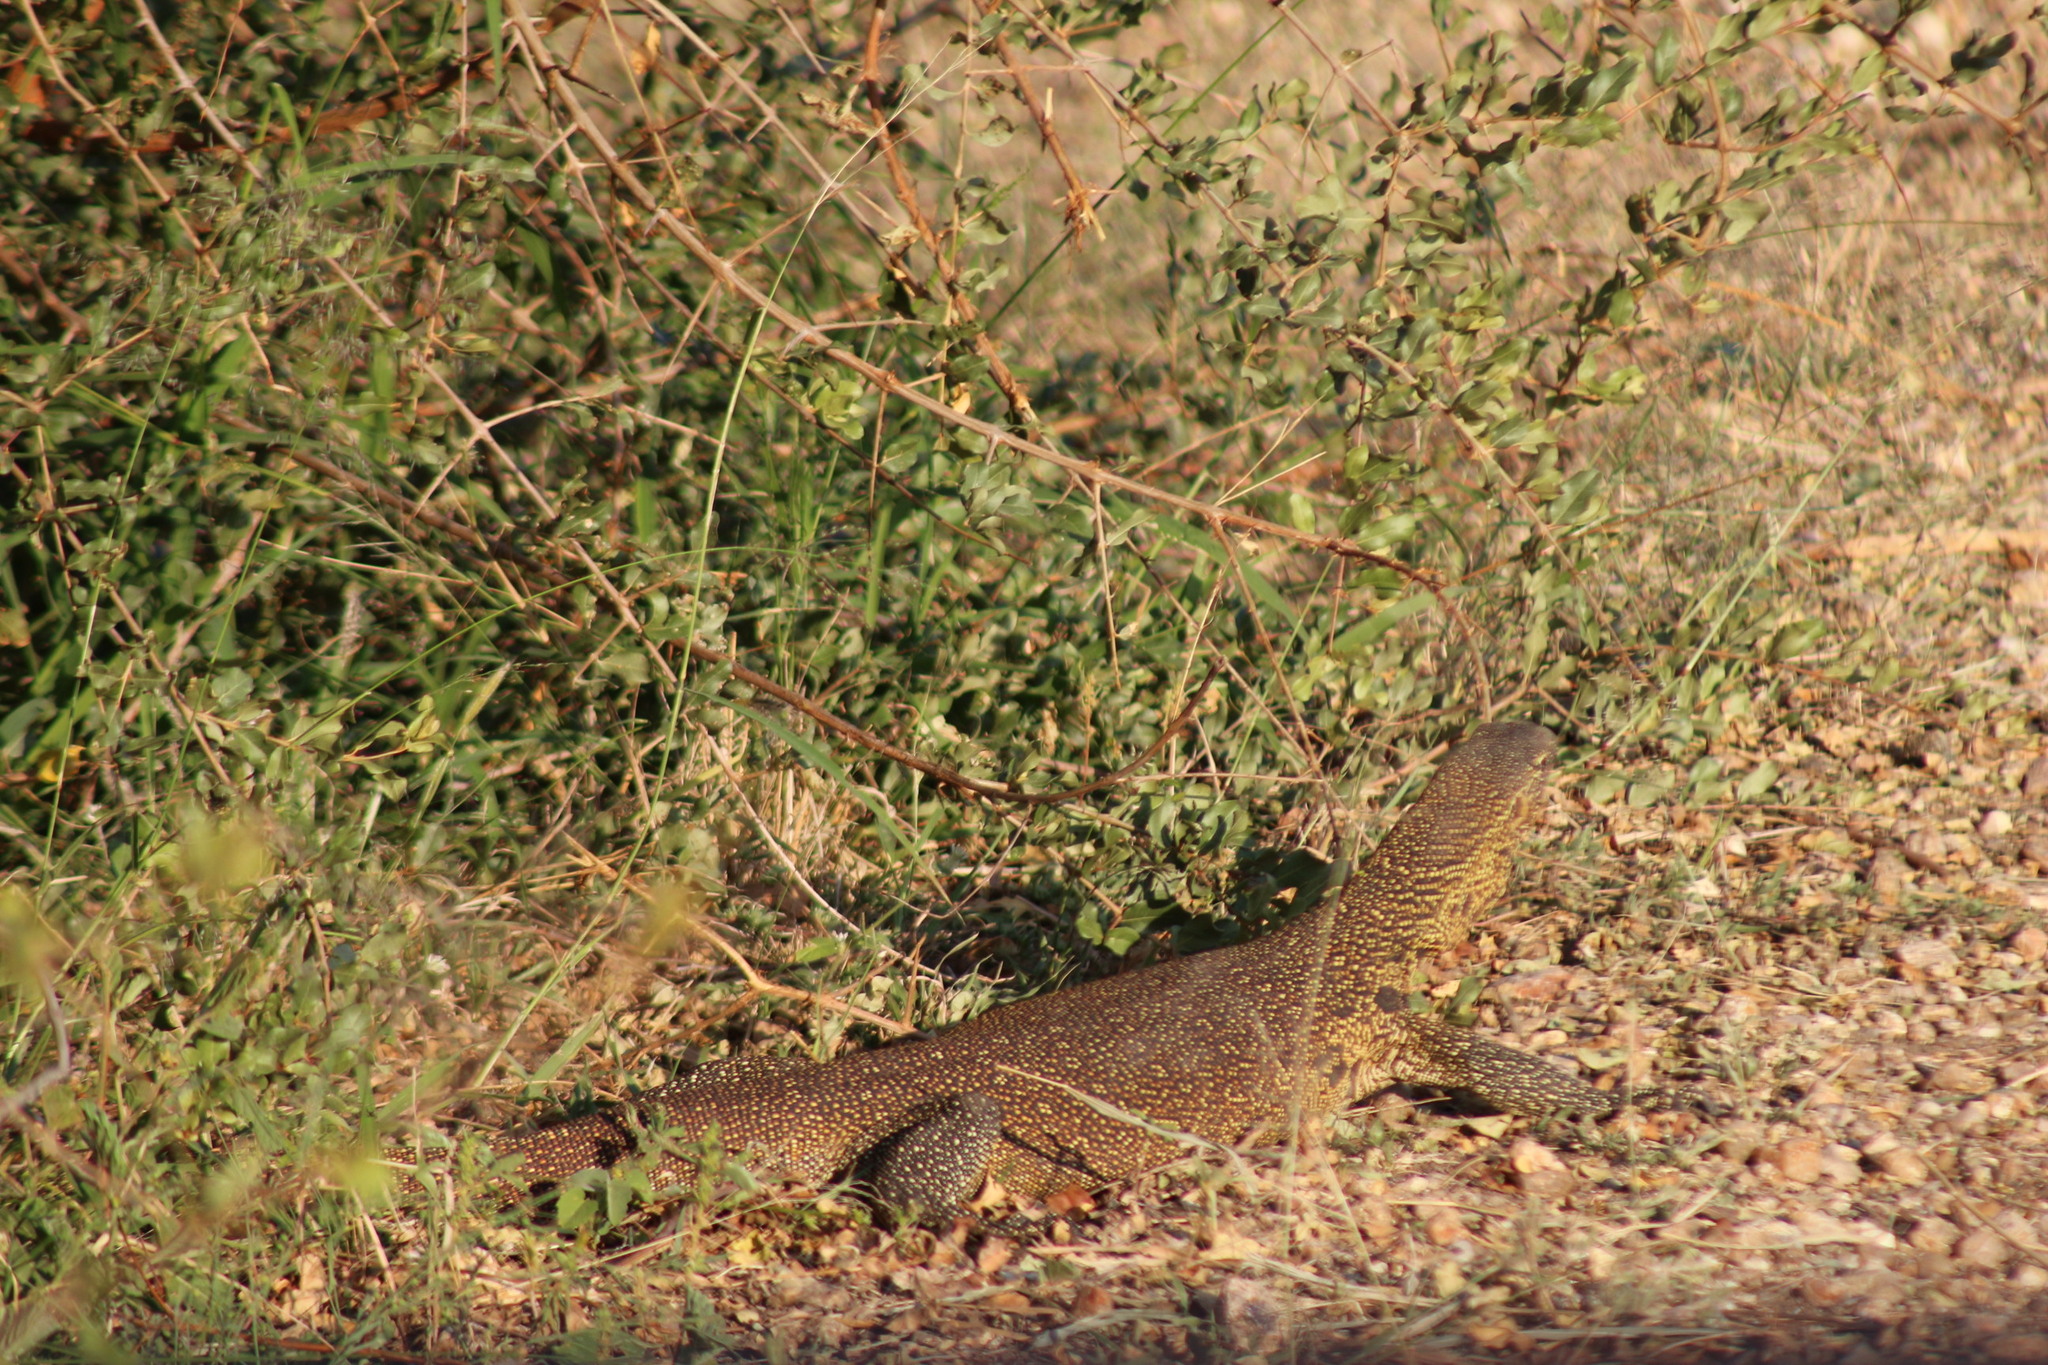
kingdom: Animalia
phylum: Chordata
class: Squamata
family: Varanidae
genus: Varanus
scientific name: Varanus niloticus
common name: Nile monitor
